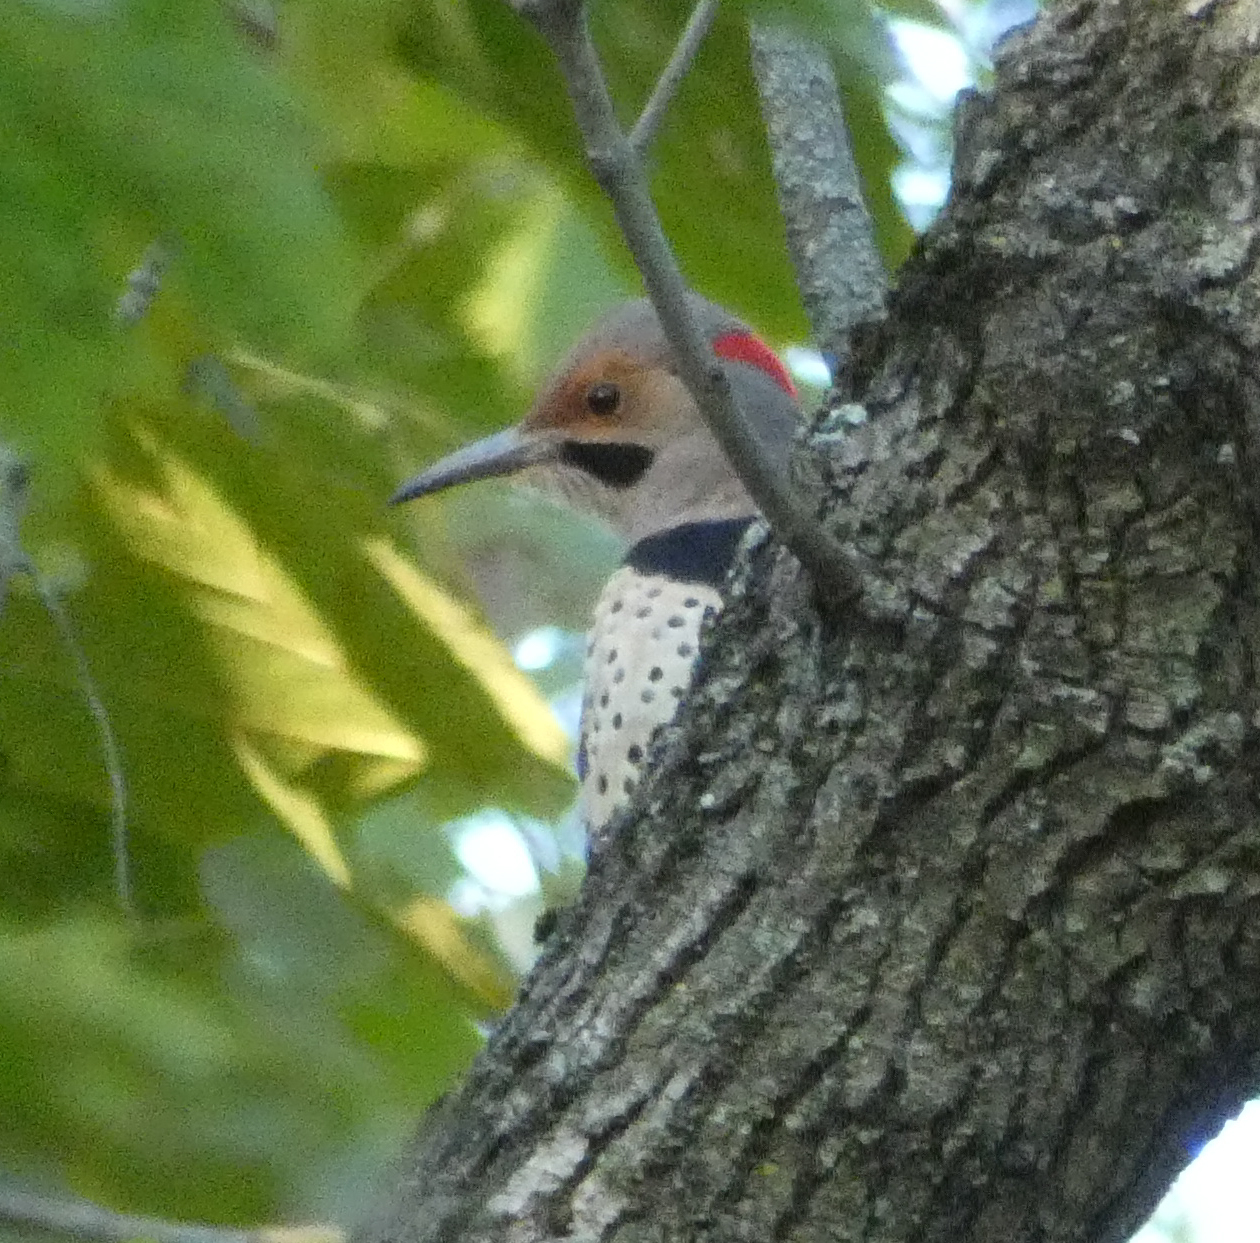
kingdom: Animalia
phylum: Chordata
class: Aves
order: Piciformes
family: Picidae
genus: Colaptes
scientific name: Colaptes auratus
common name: Northern flicker
